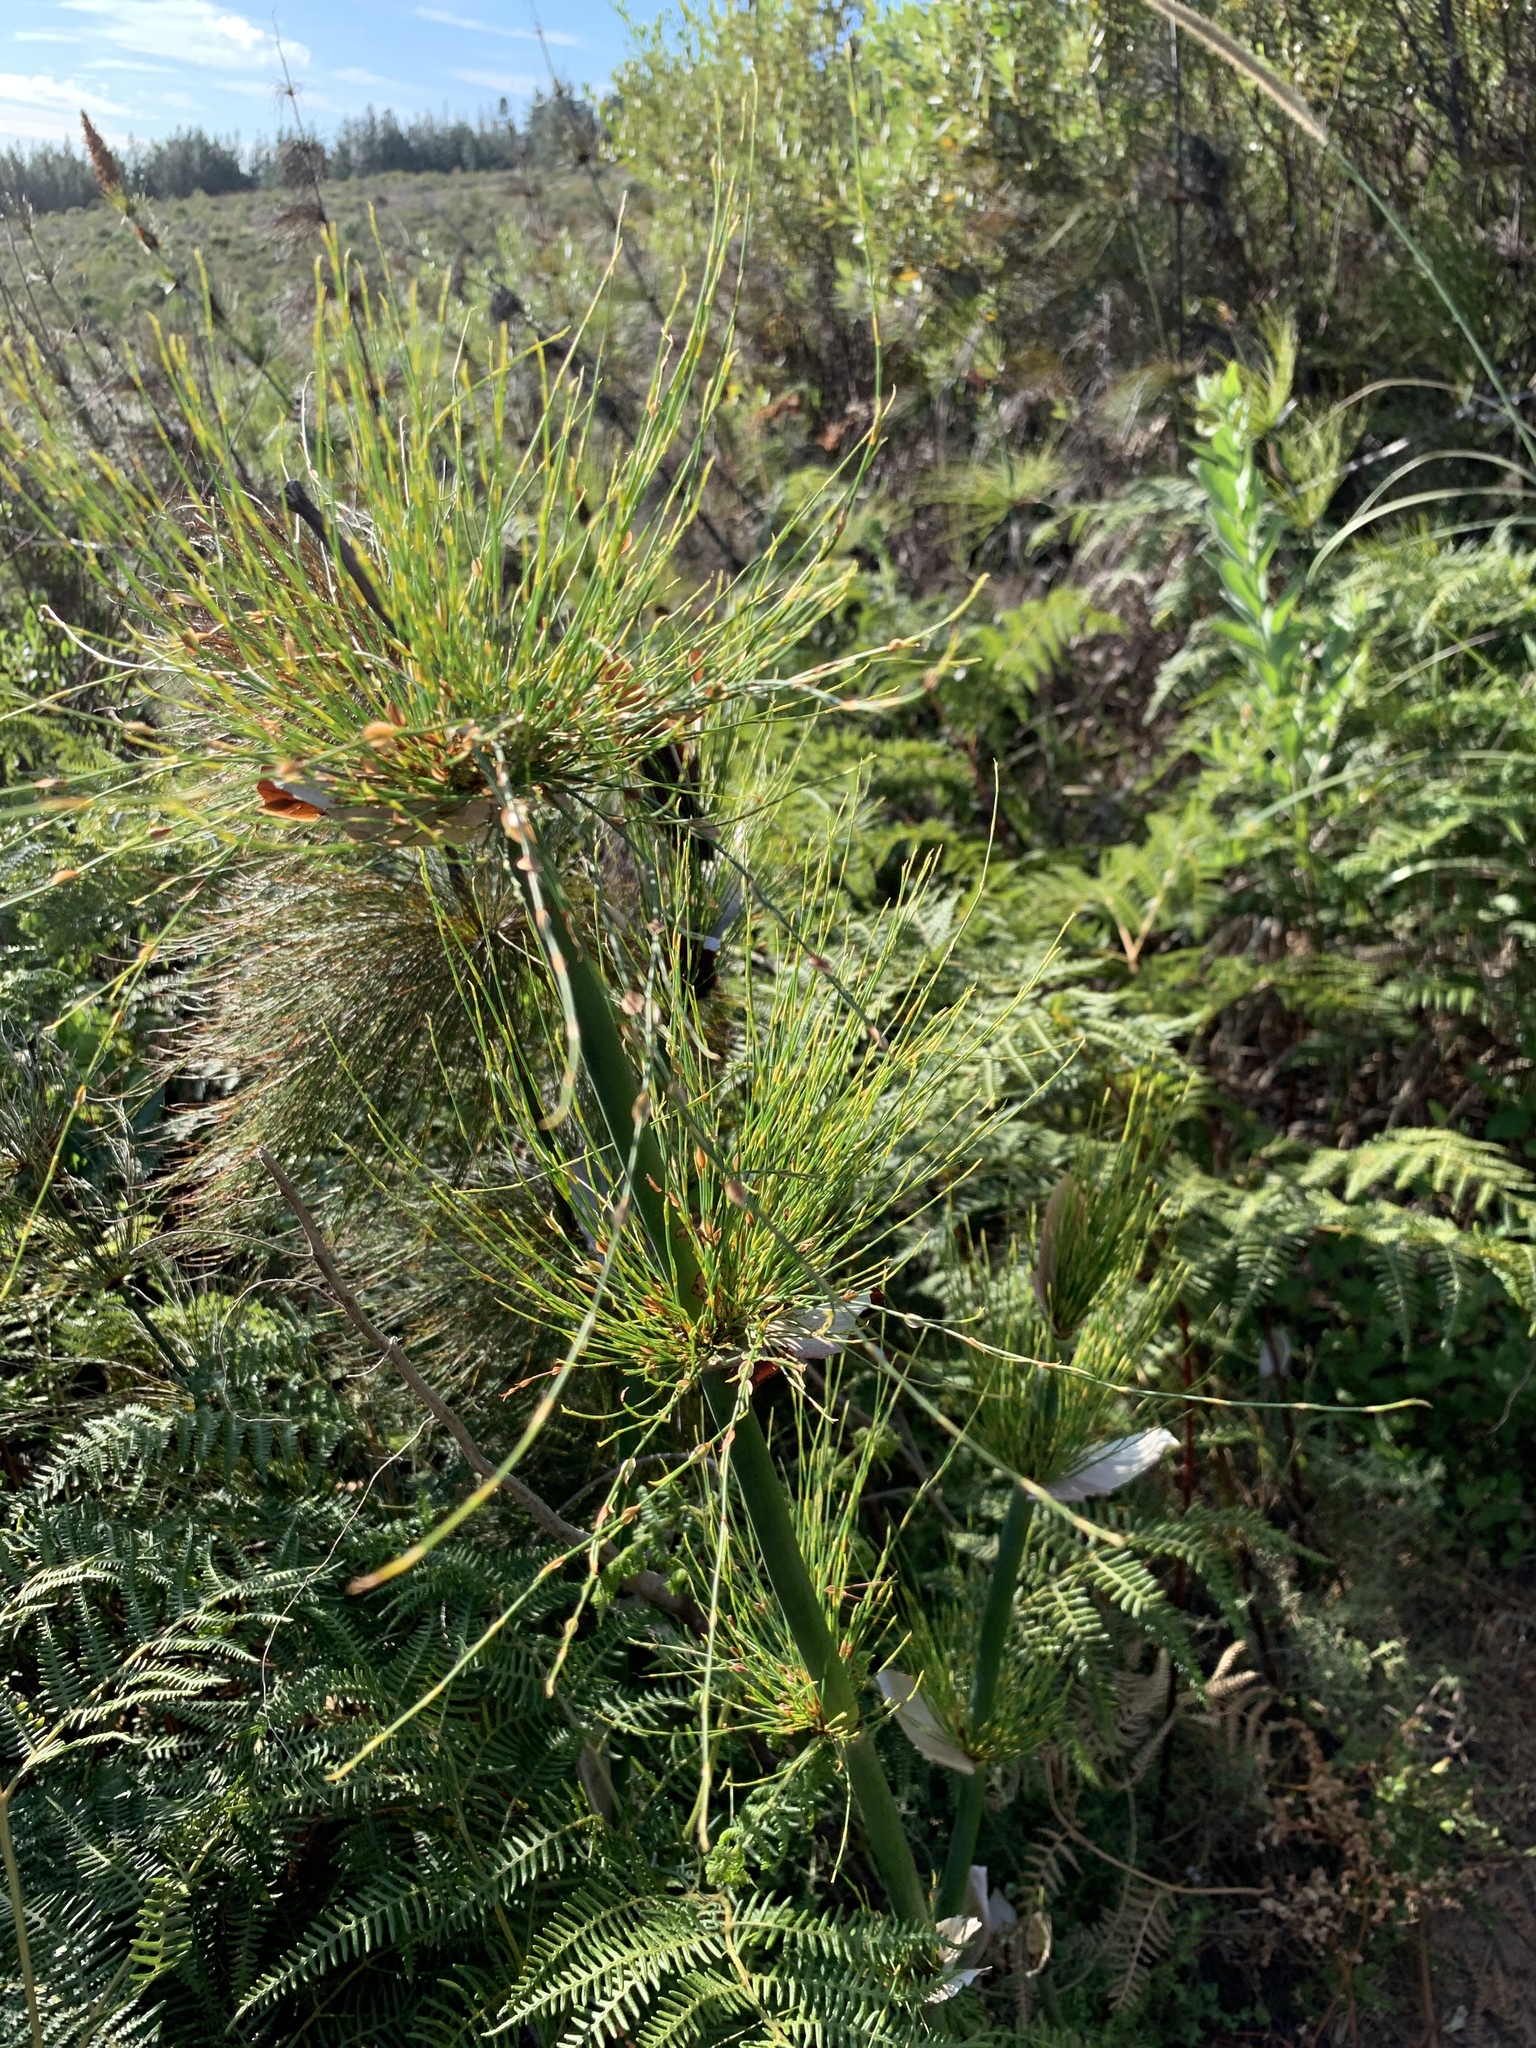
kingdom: Plantae
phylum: Tracheophyta
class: Liliopsida
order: Poales
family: Restionaceae
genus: Elegia
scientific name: Elegia capensis
